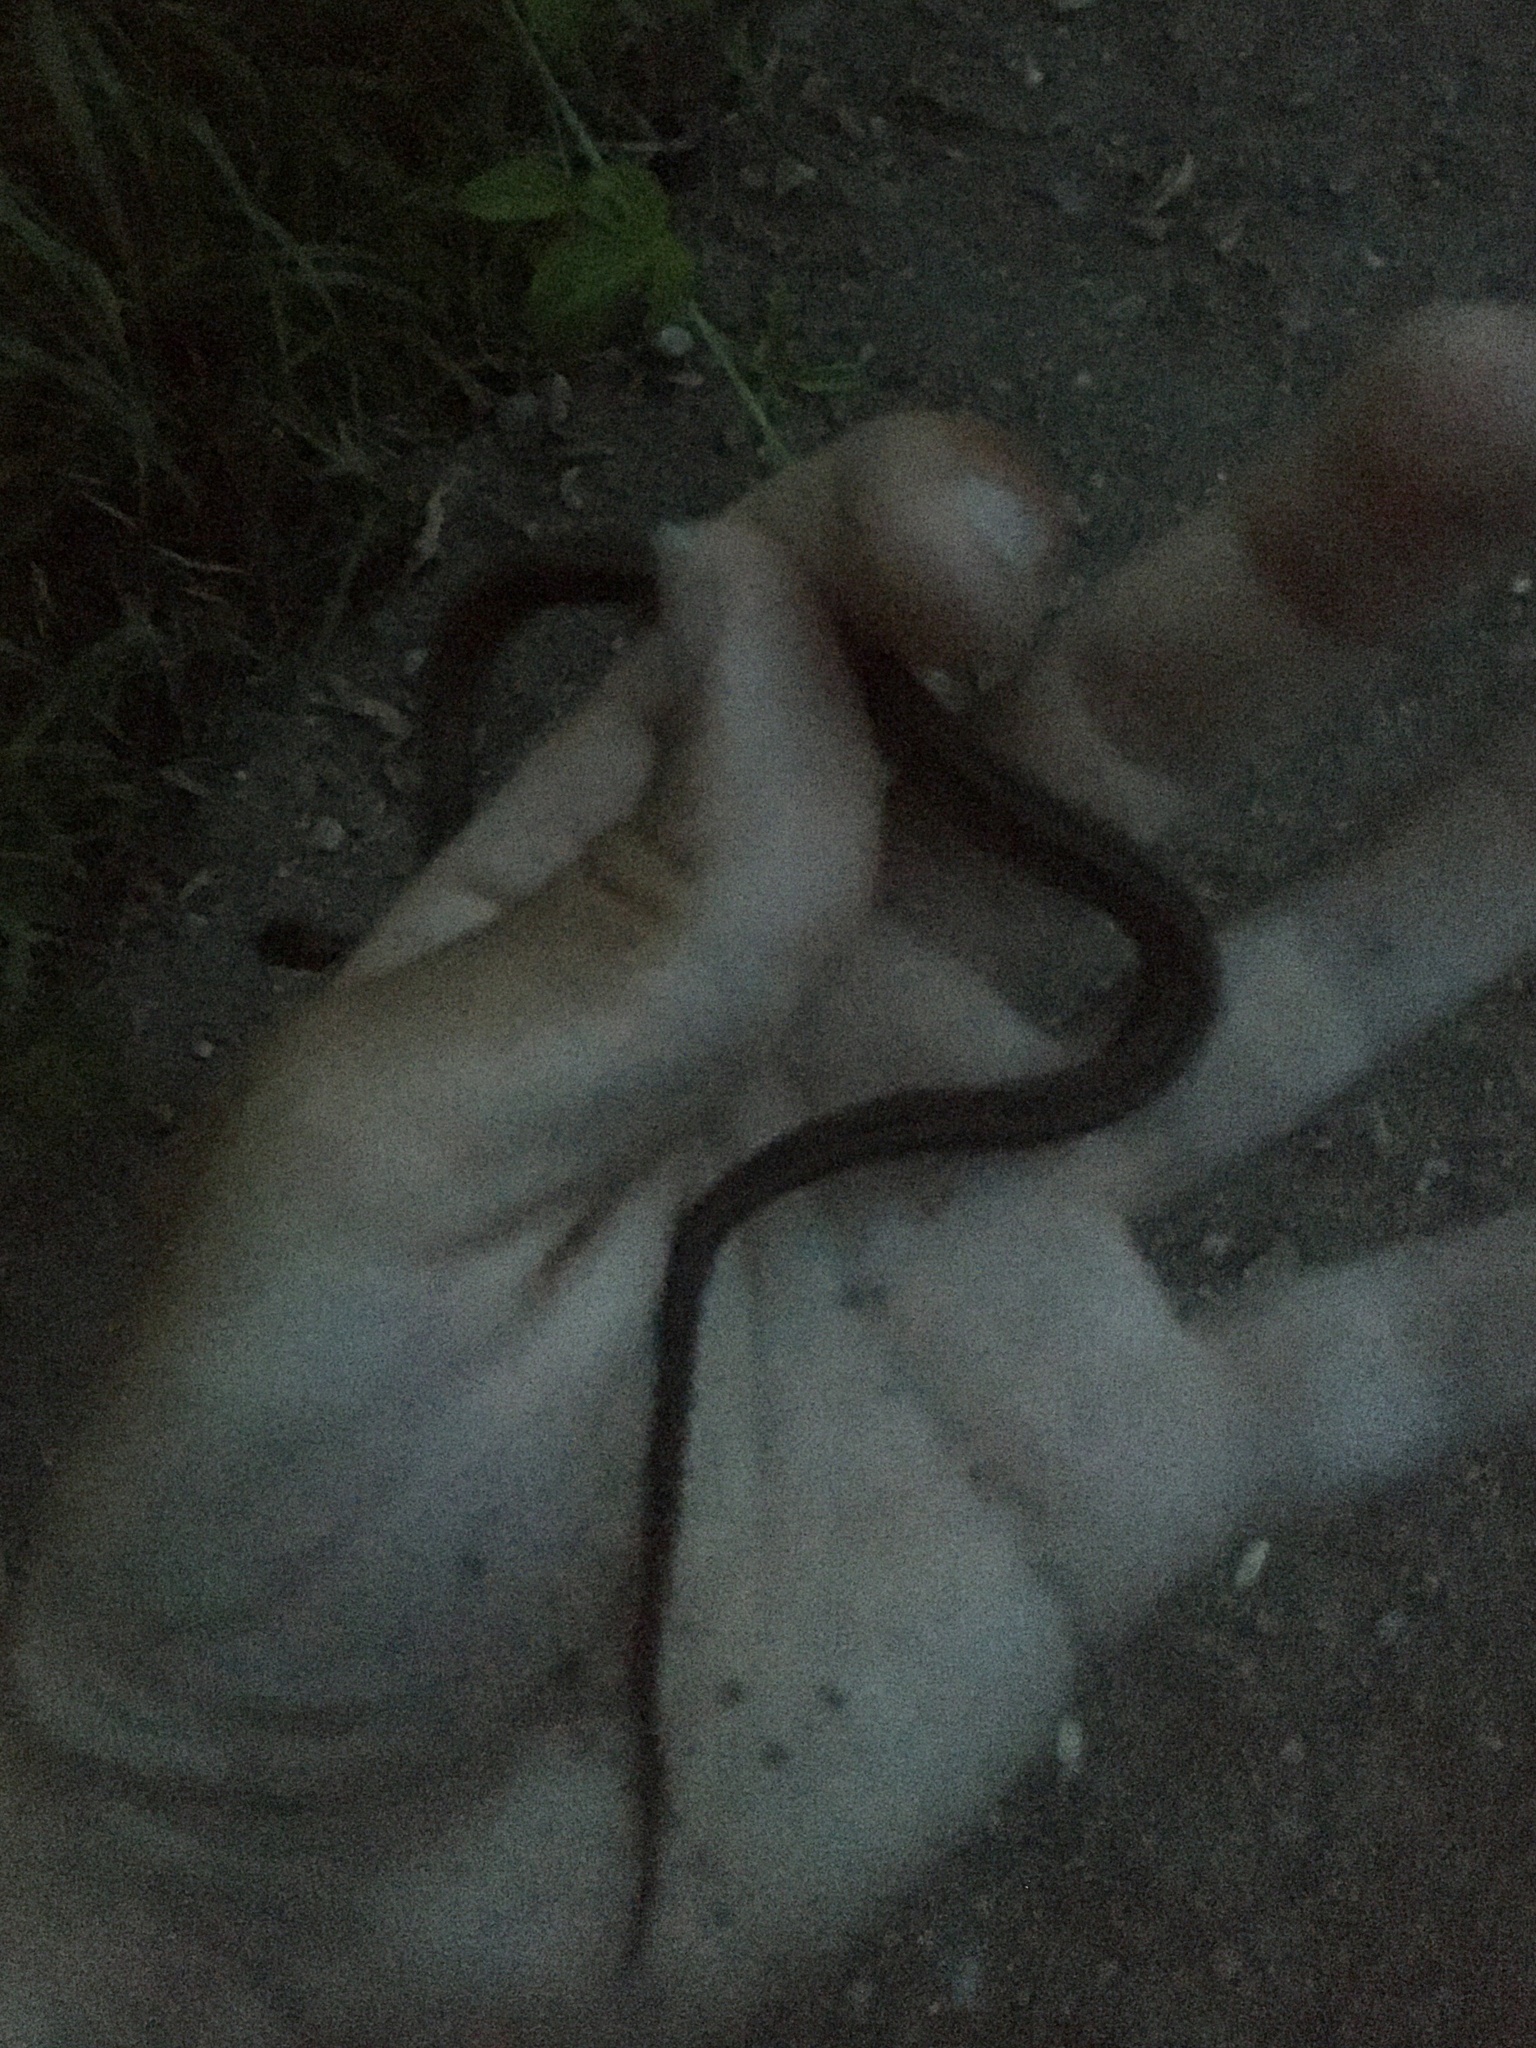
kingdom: Animalia
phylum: Chordata
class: Squamata
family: Colubridae
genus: Storeria
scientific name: Storeria occipitomaculata
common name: Redbelly snake
